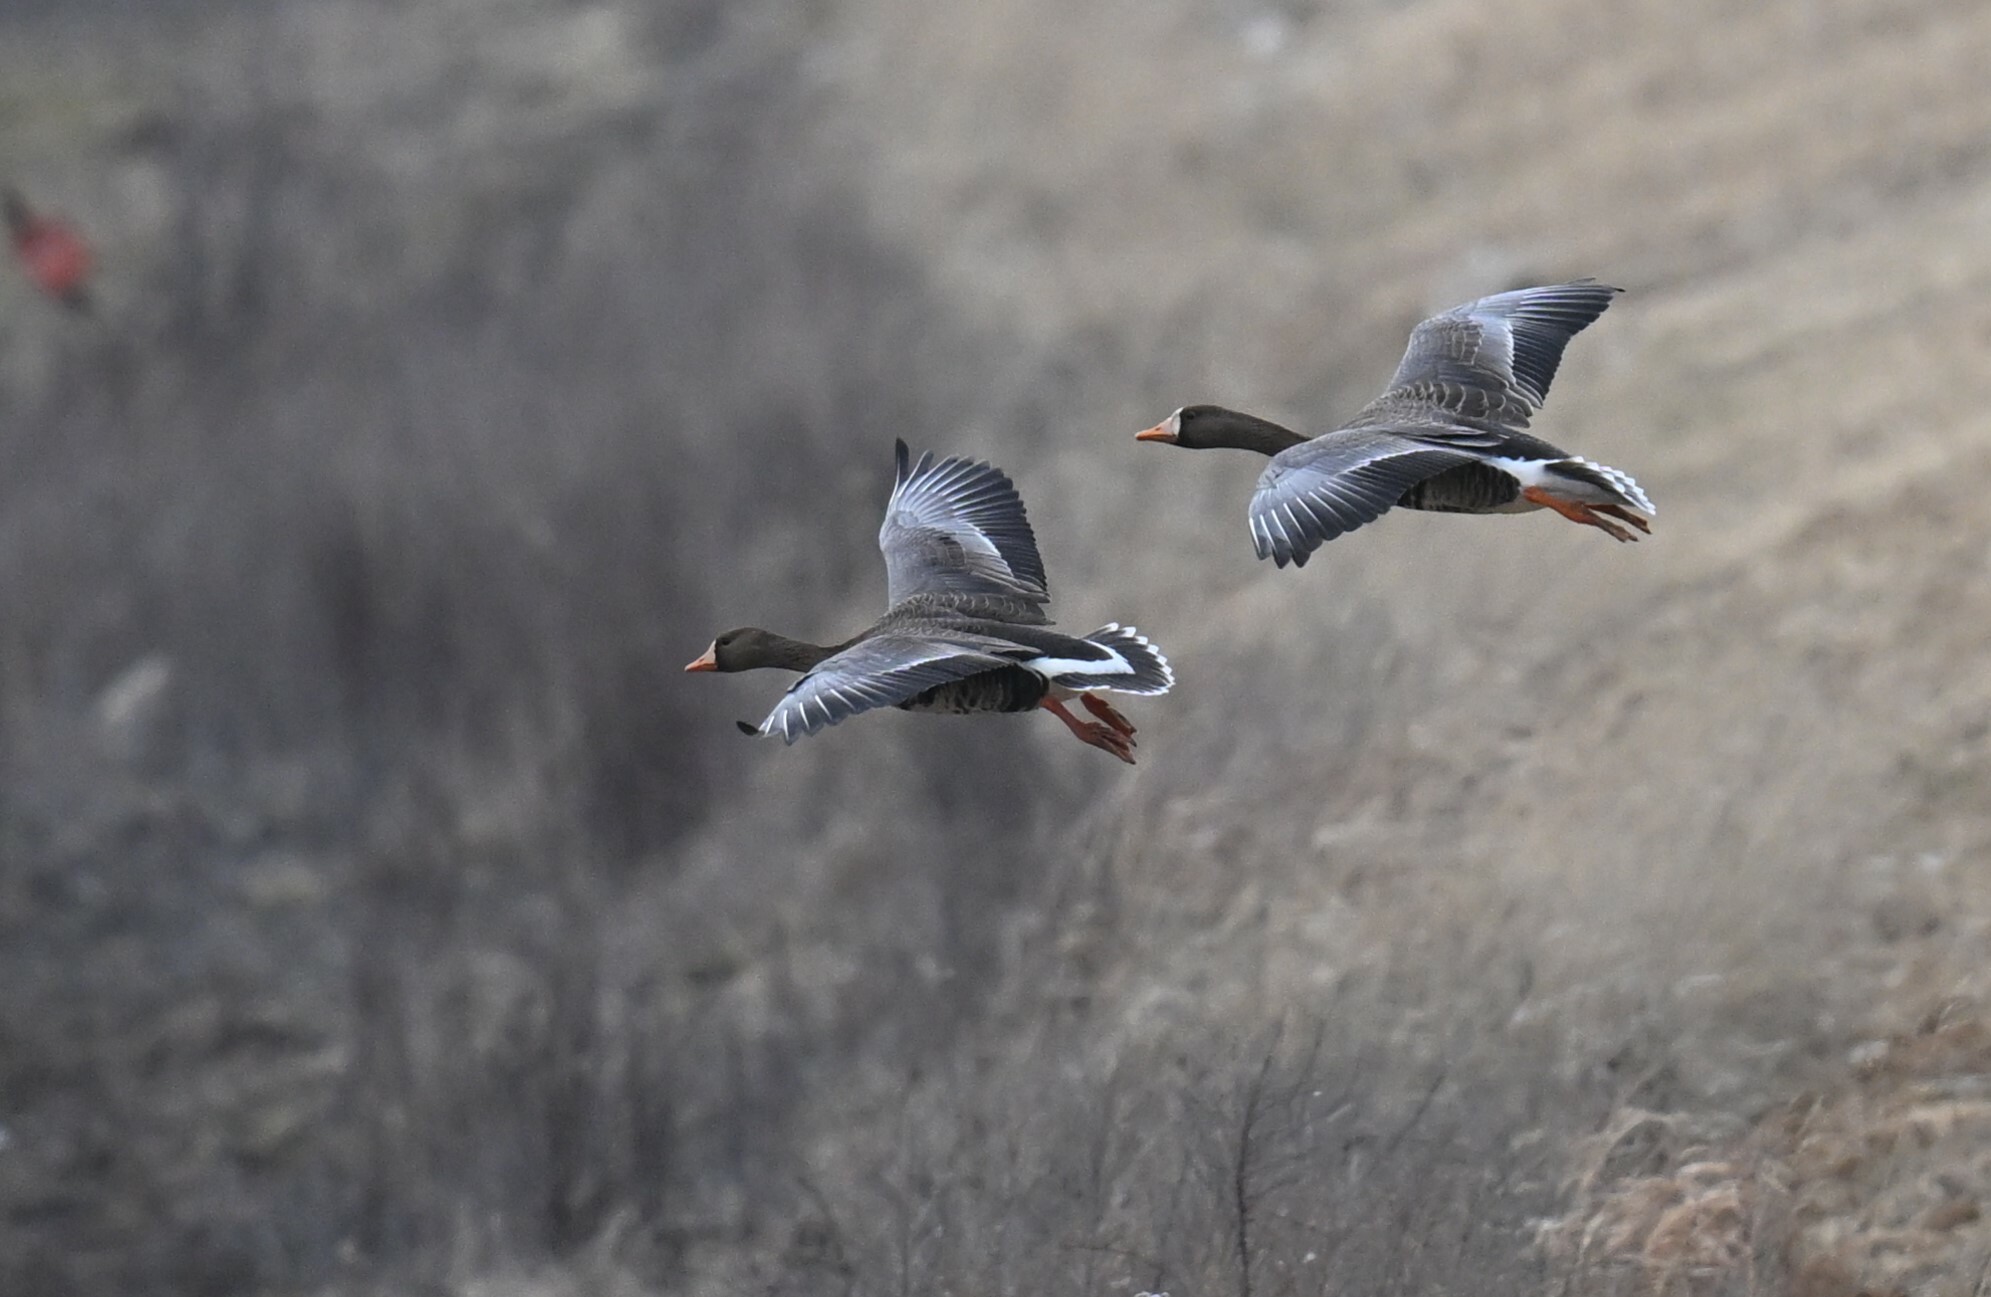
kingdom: Animalia
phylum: Chordata
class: Aves
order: Anseriformes
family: Anatidae
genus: Anser
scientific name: Anser albifrons
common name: Greater white-fronted goose
